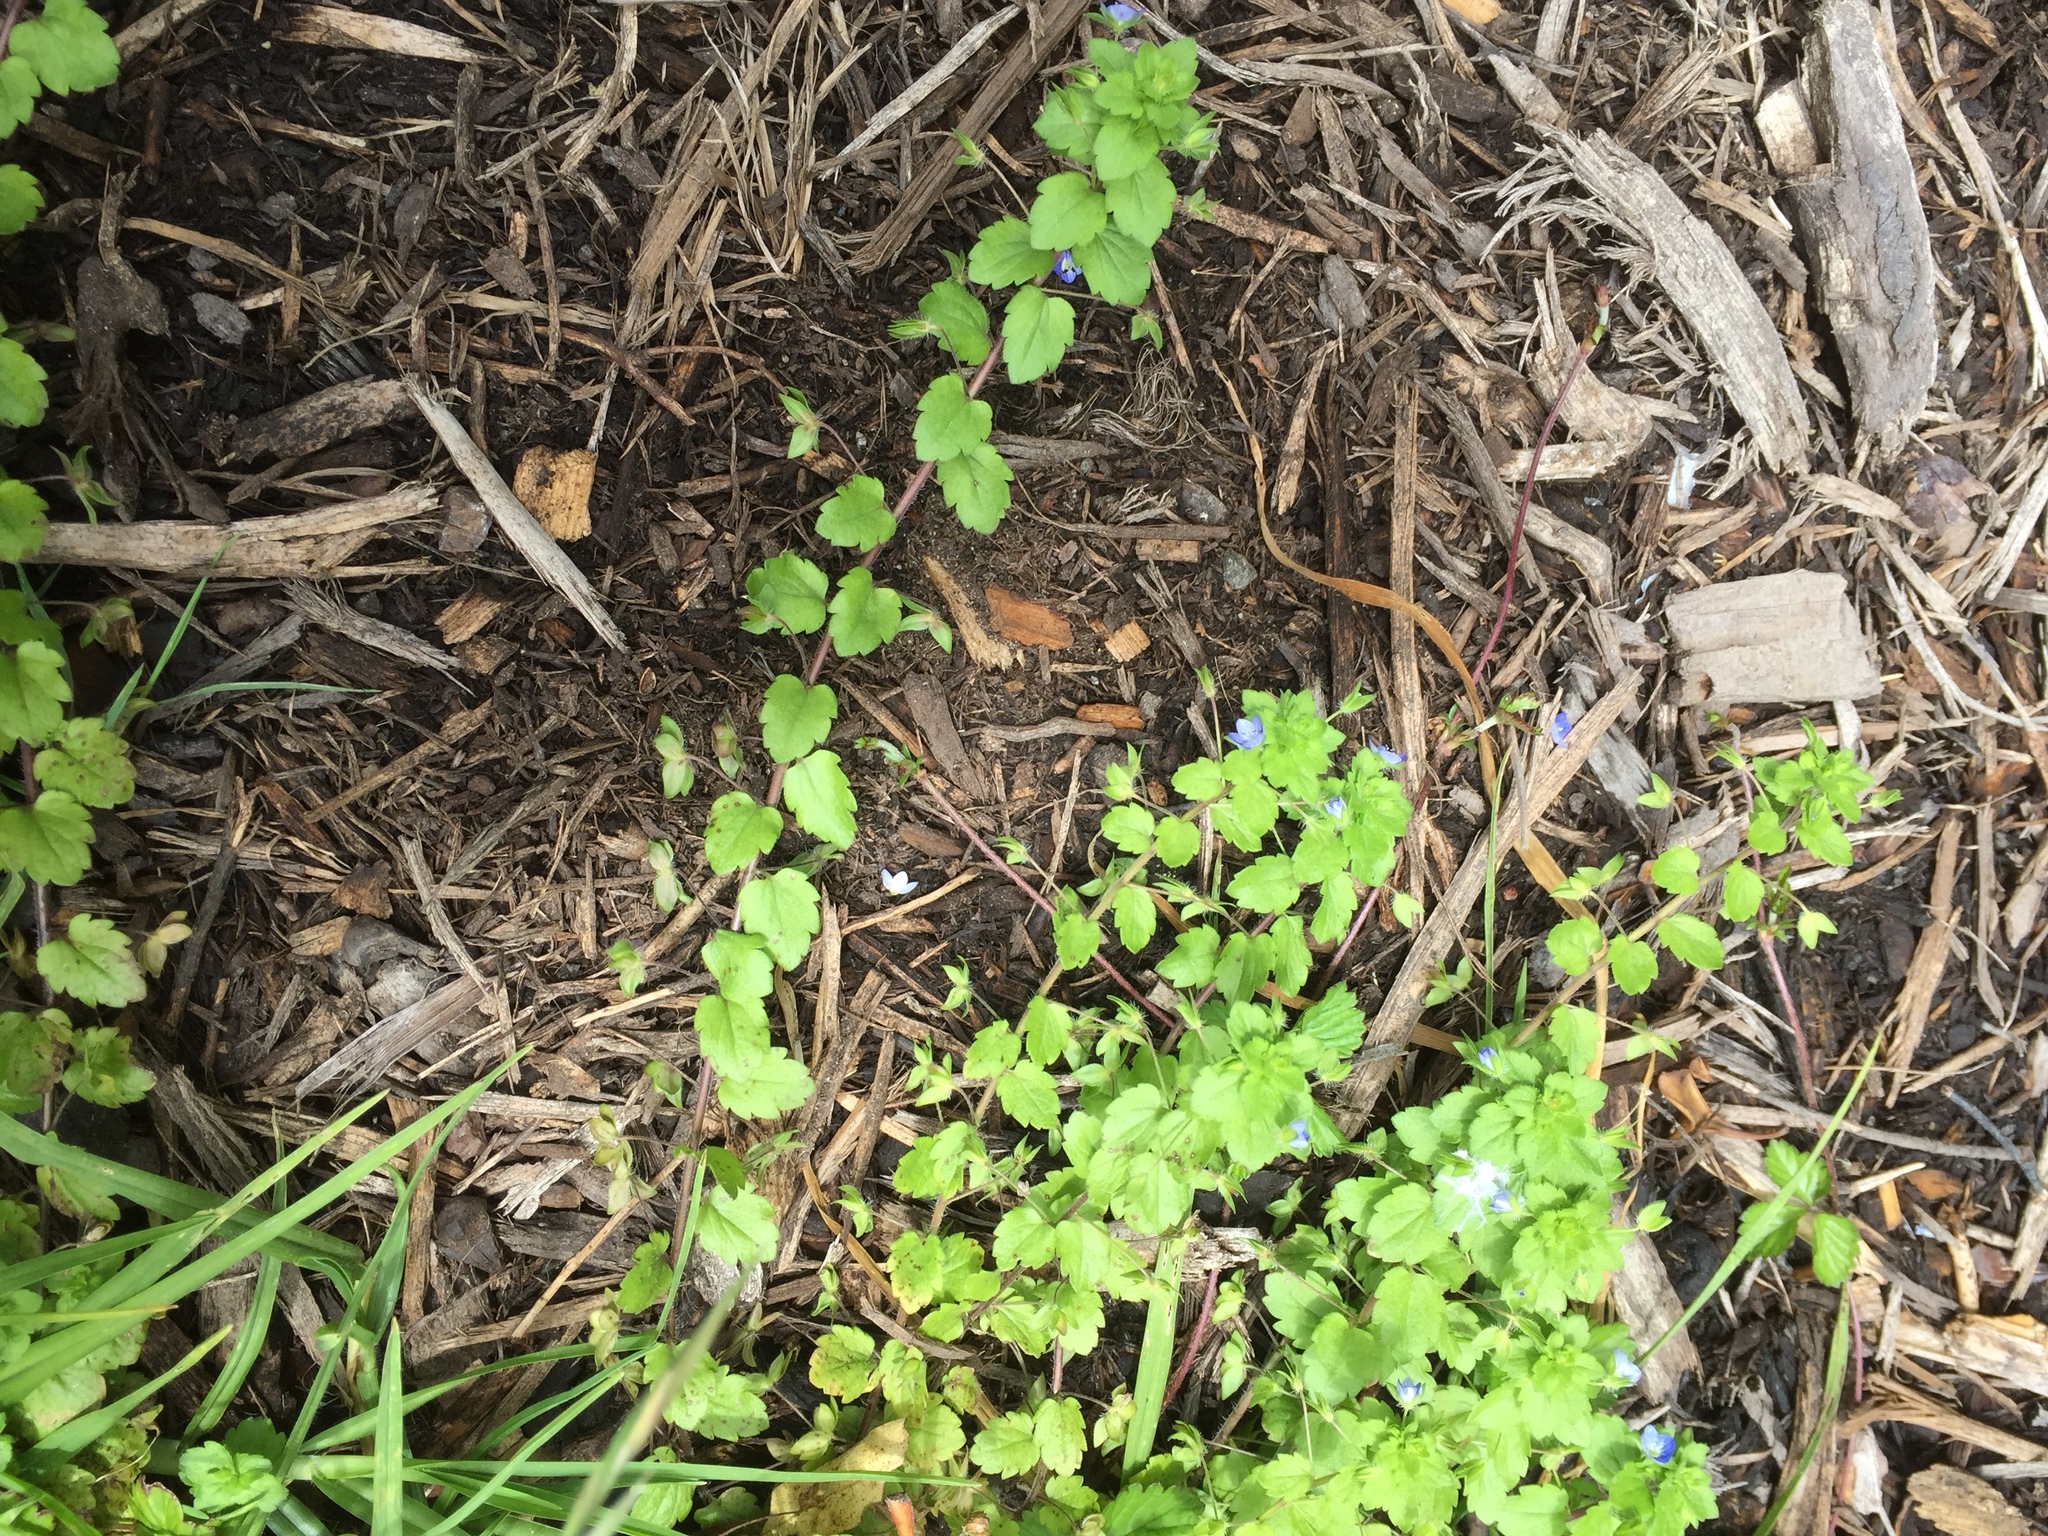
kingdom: Plantae
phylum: Tracheophyta
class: Magnoliopsida
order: Lamiales
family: Plantaginaceae
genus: Veronica
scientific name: Veronica persica
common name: Common field-speedwell
